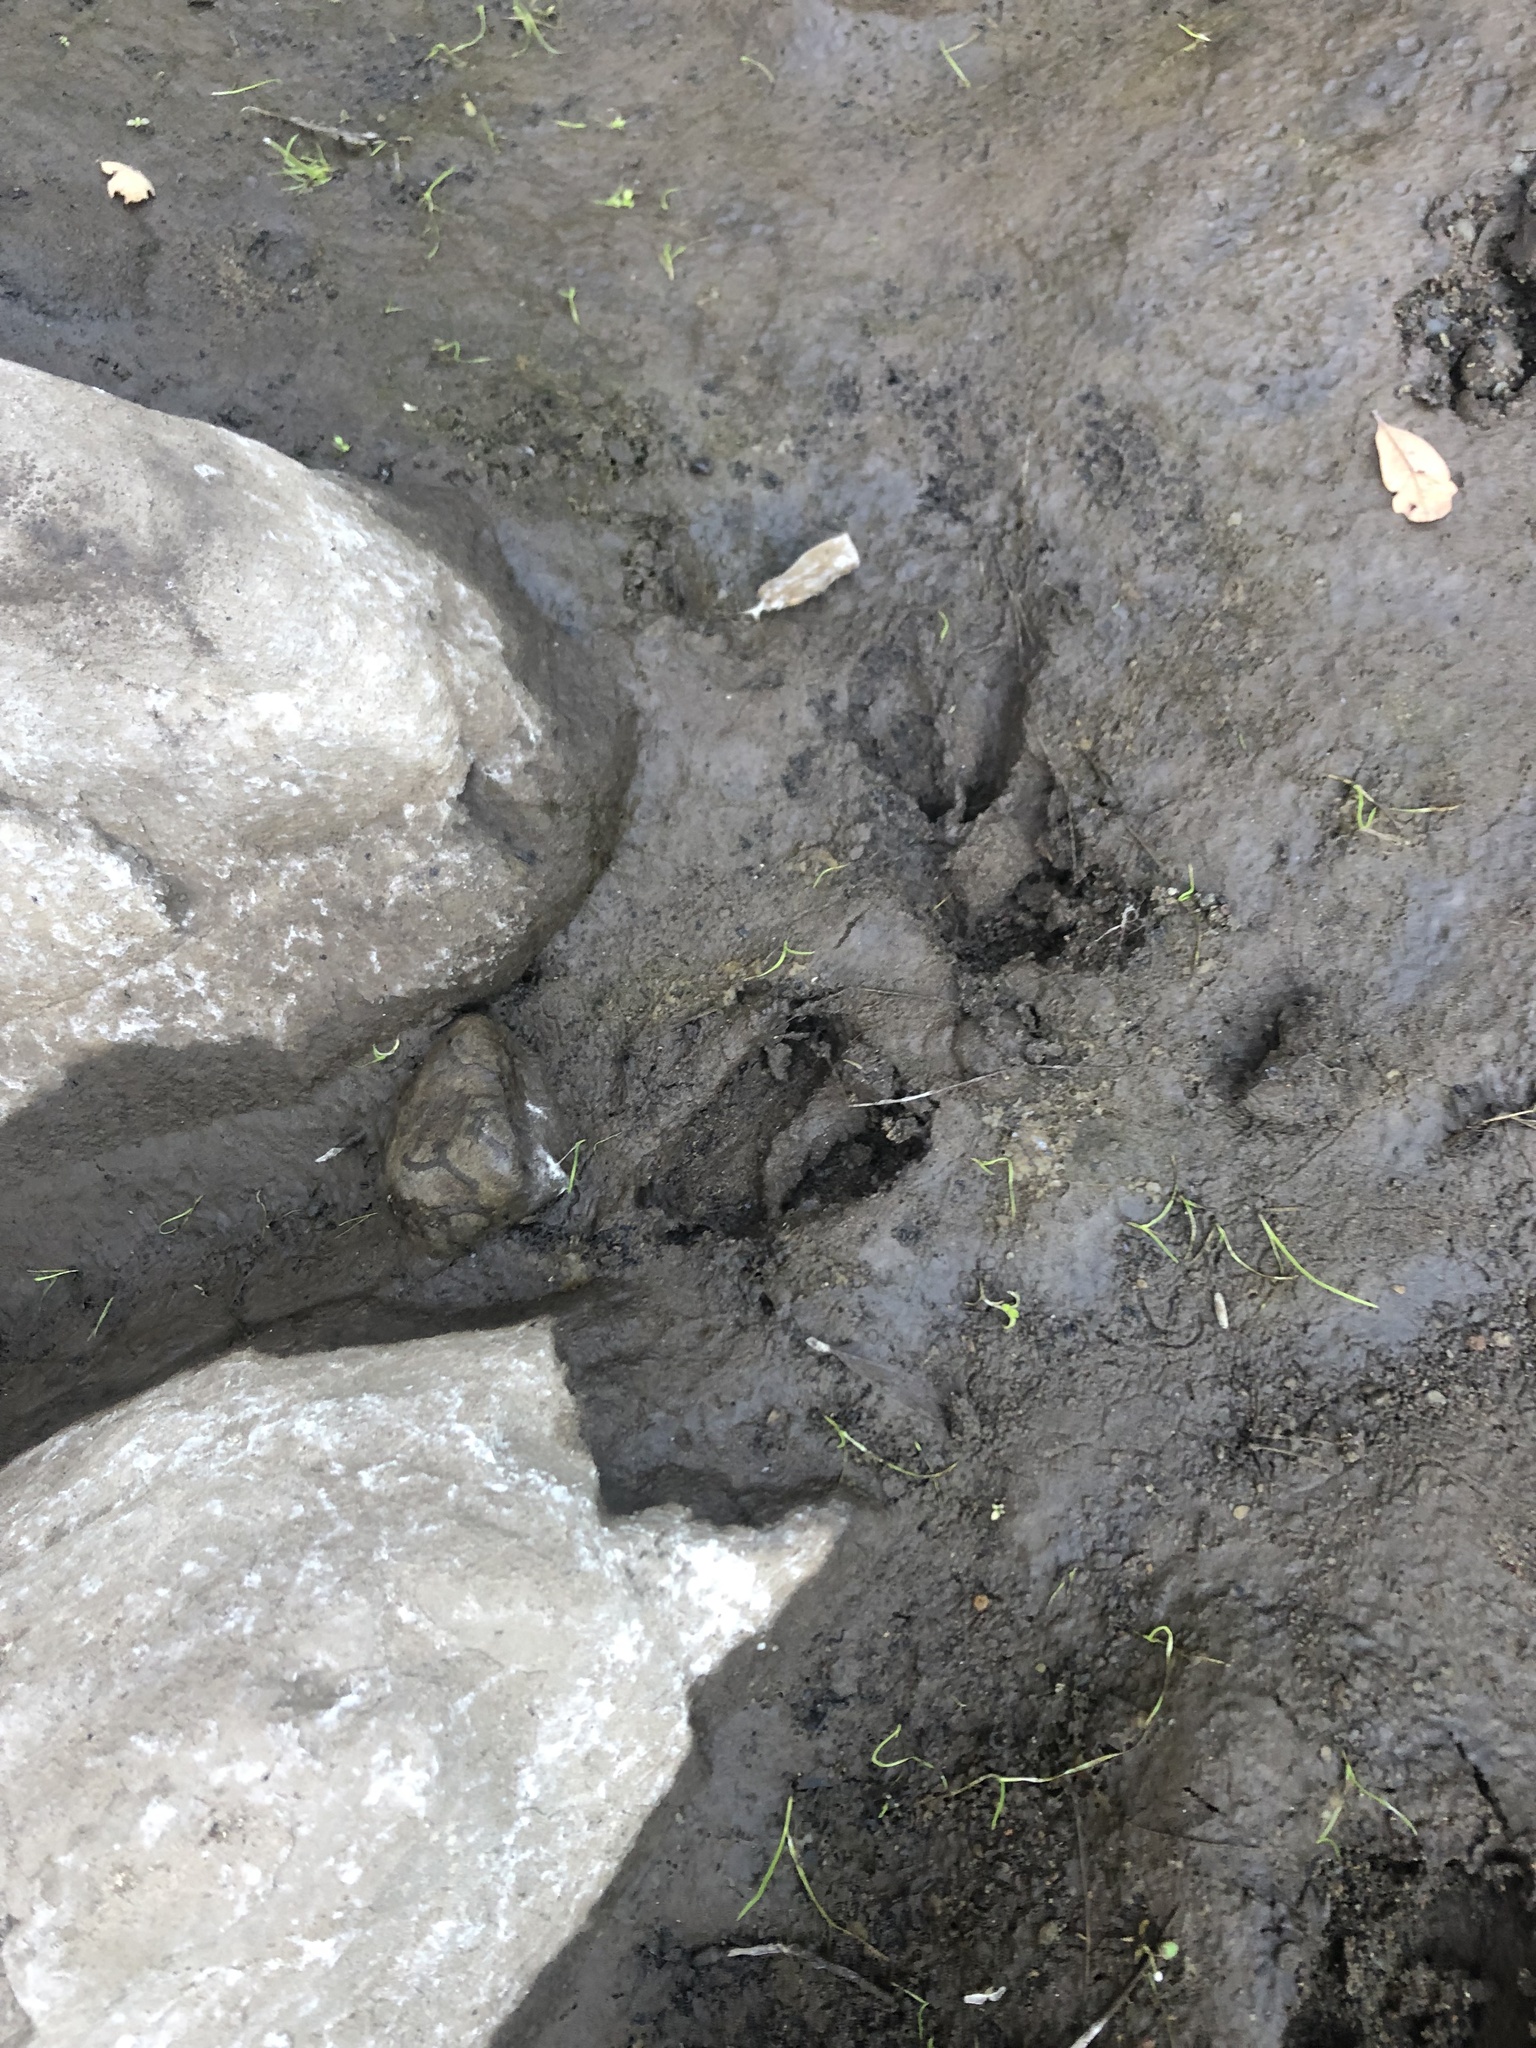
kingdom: Animalia
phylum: Chordata
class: Mammalia
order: Artiodactyla
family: Cervidae
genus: Odocoileus
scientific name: Odocoileus hemionus
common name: Mule deer
